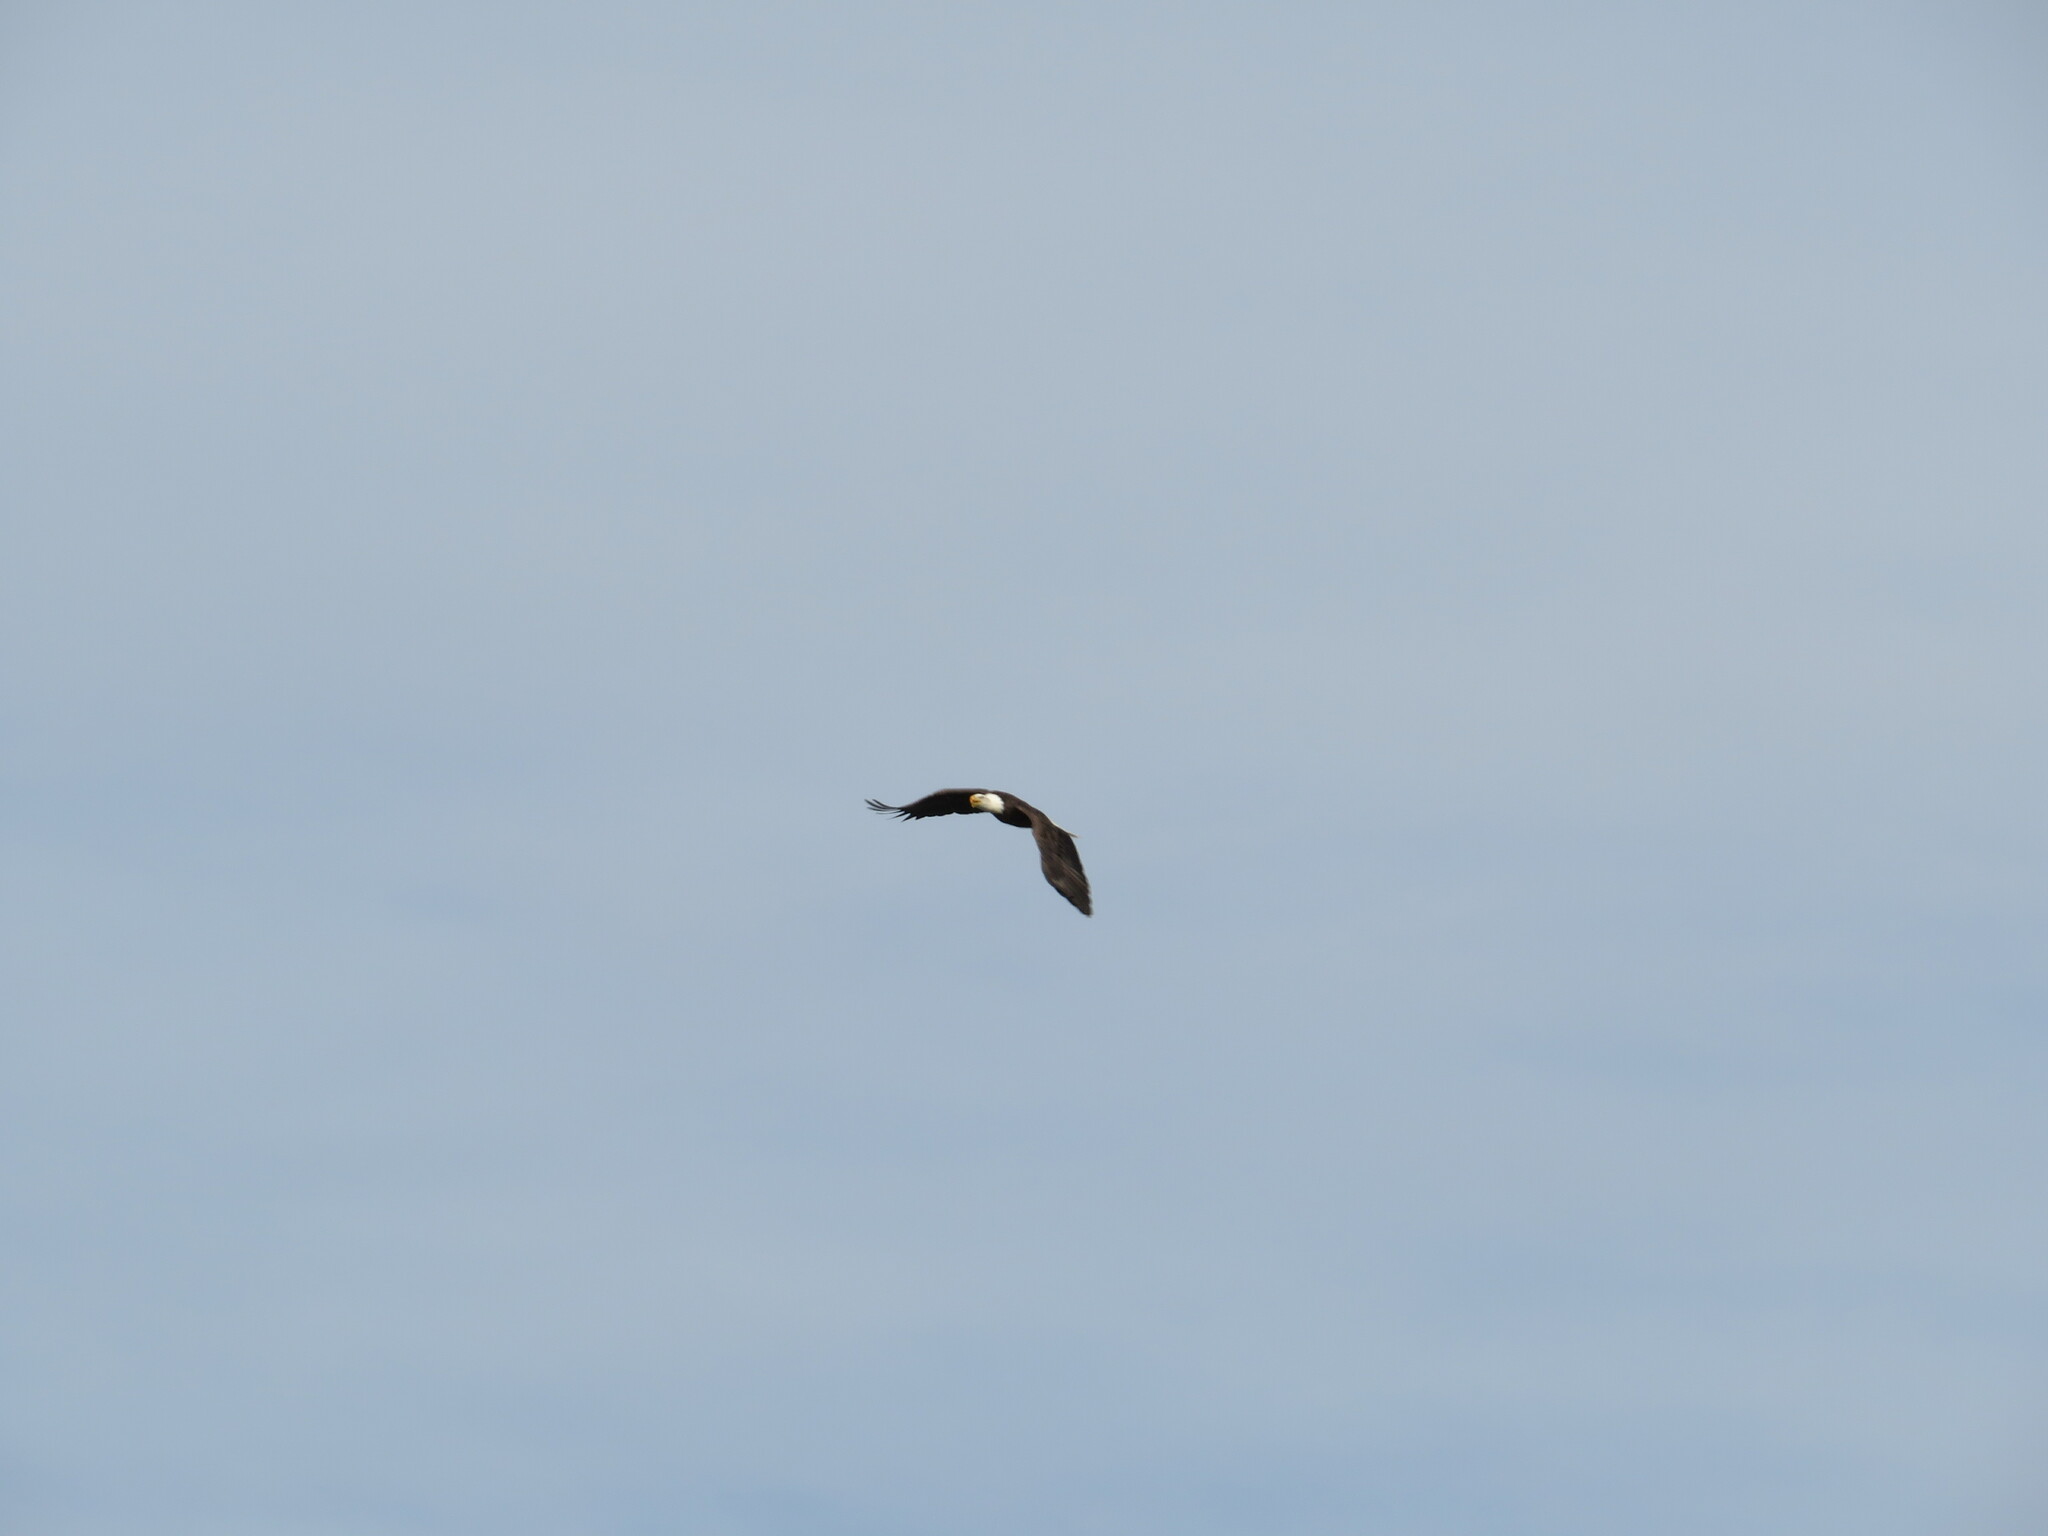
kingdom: Animalia
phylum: Chordata
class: Aves
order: Accipitriformes
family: Accipitridae
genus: Haliaeetus
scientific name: Haliaeetus leucocephalus
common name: Bald eagle
